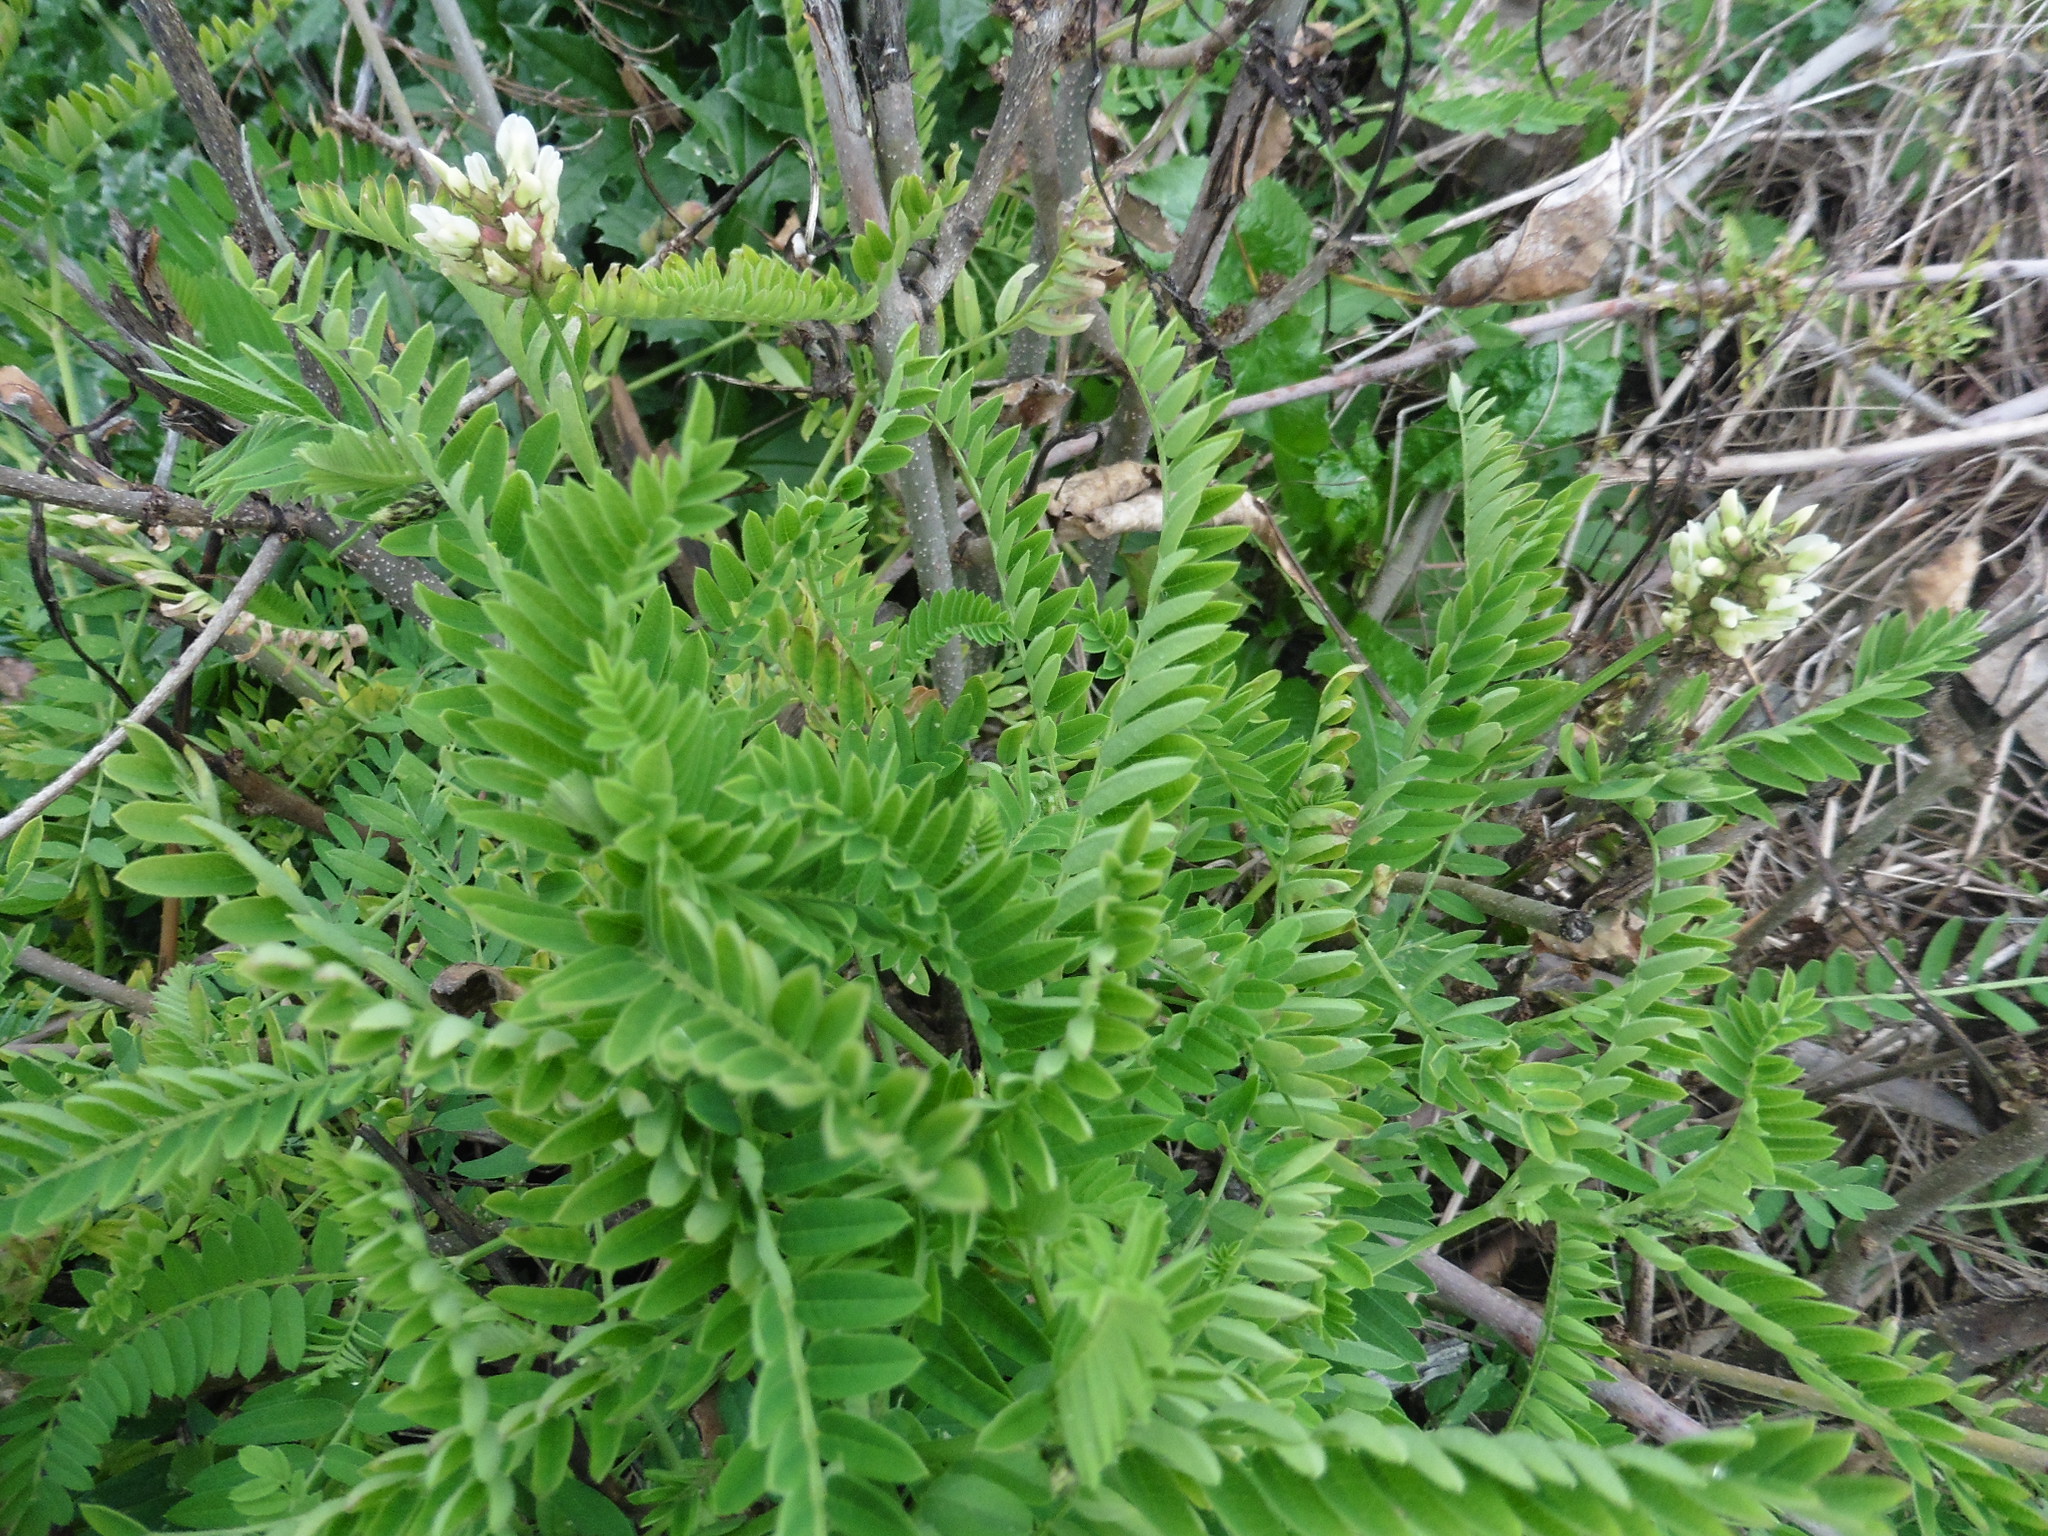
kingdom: Plantae
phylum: Tracheophyta
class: Magnoliopsida
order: Fabales
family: Fabaceae
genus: Astragalus
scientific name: Astragalus cicer
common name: Chick-pea milk-vetch
